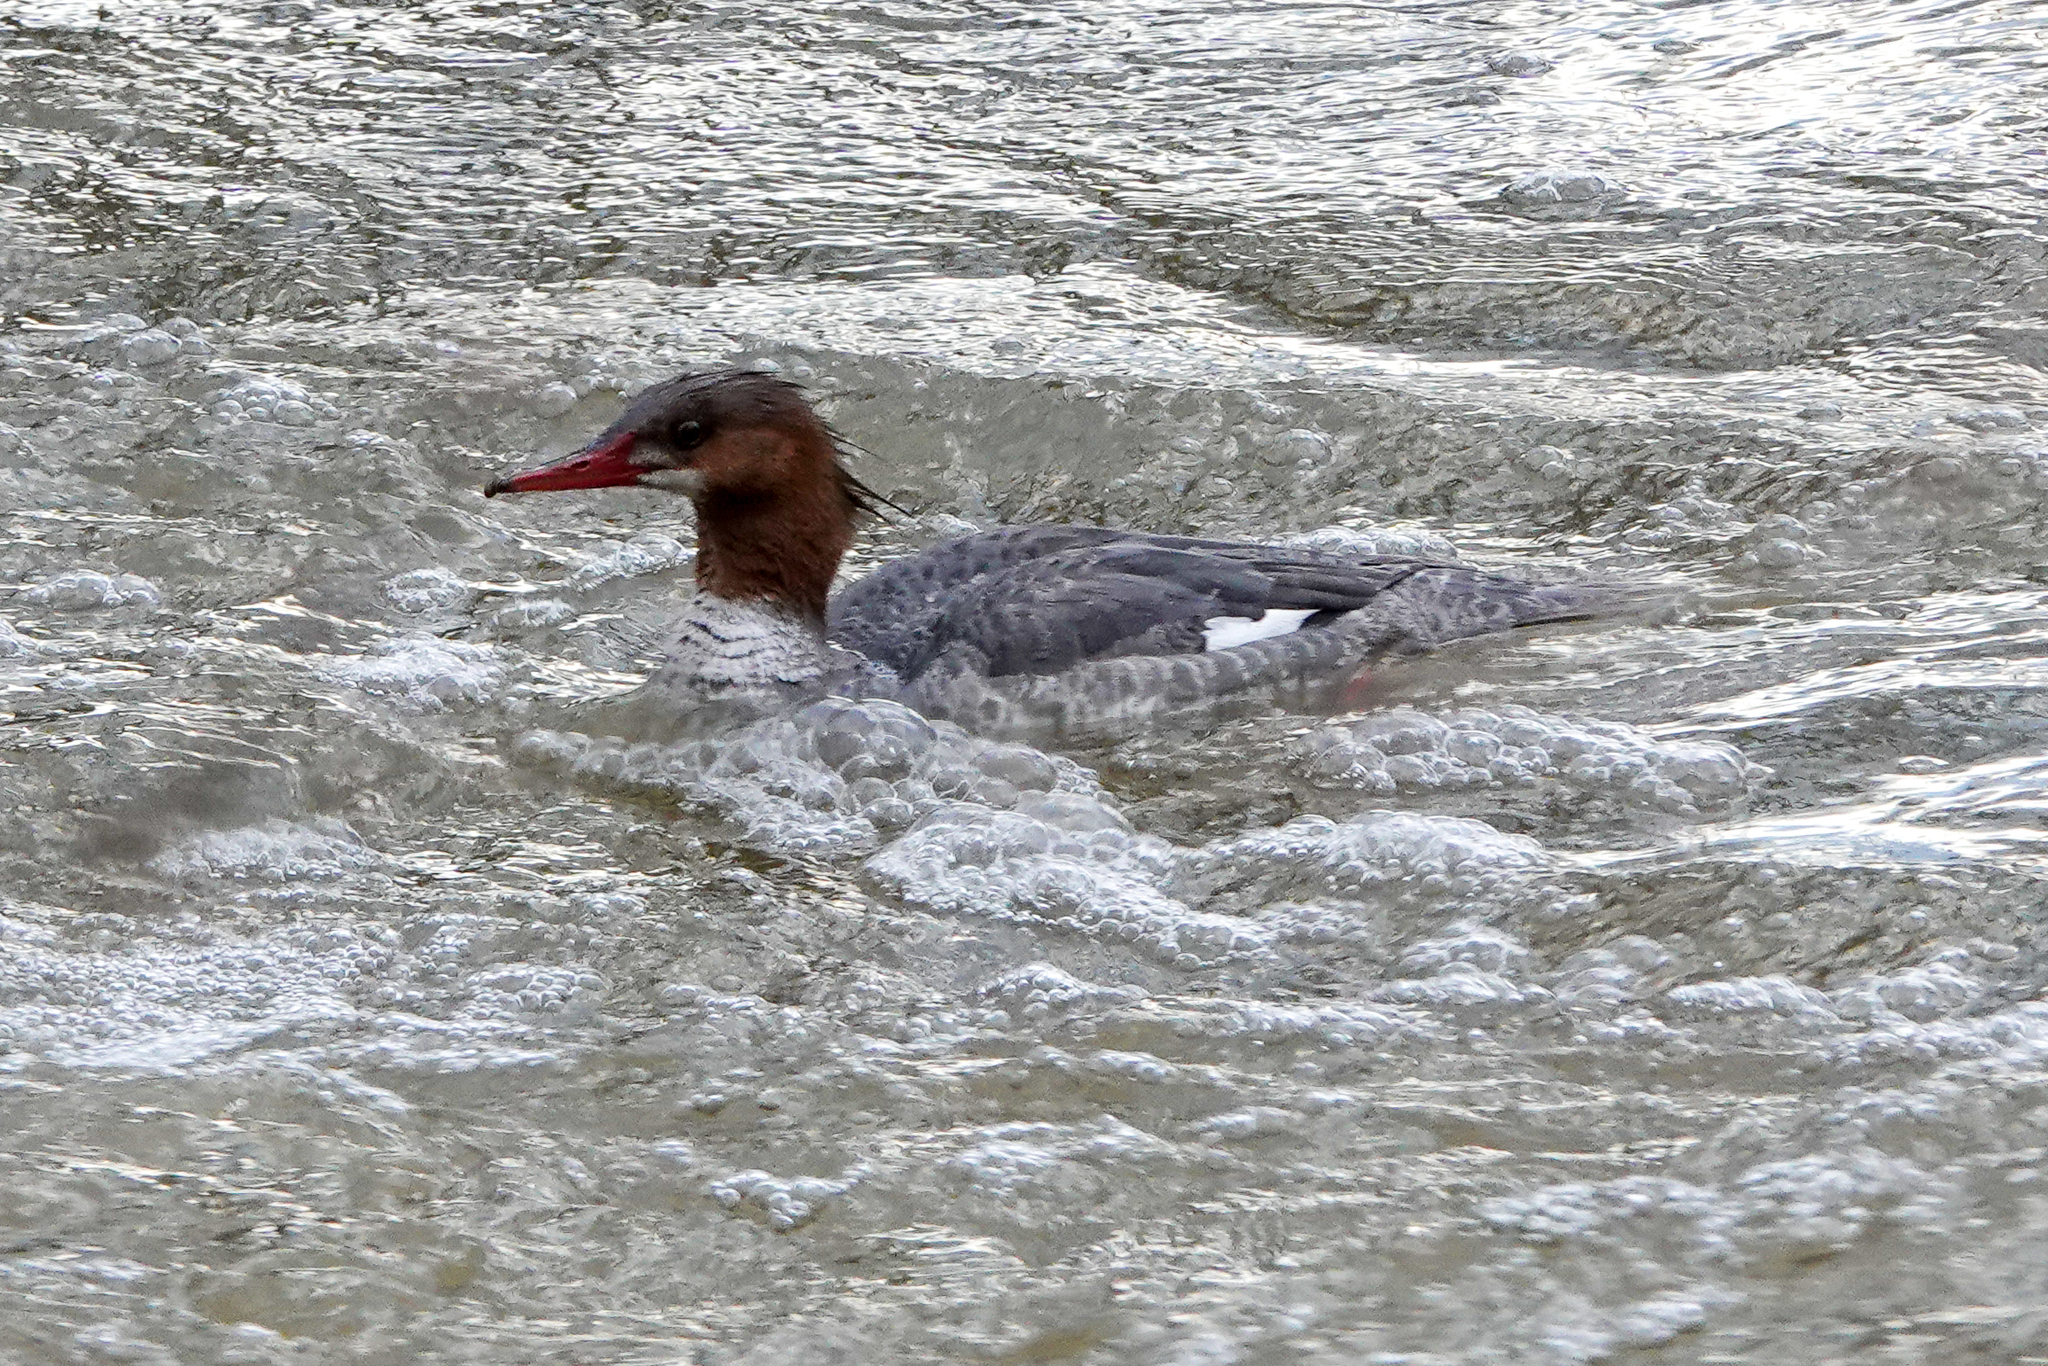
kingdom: Animalia
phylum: Chordata
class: Aves
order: Anseriformes
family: Anatidae
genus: Mergus
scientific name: Mergus merganser
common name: Common merganser
